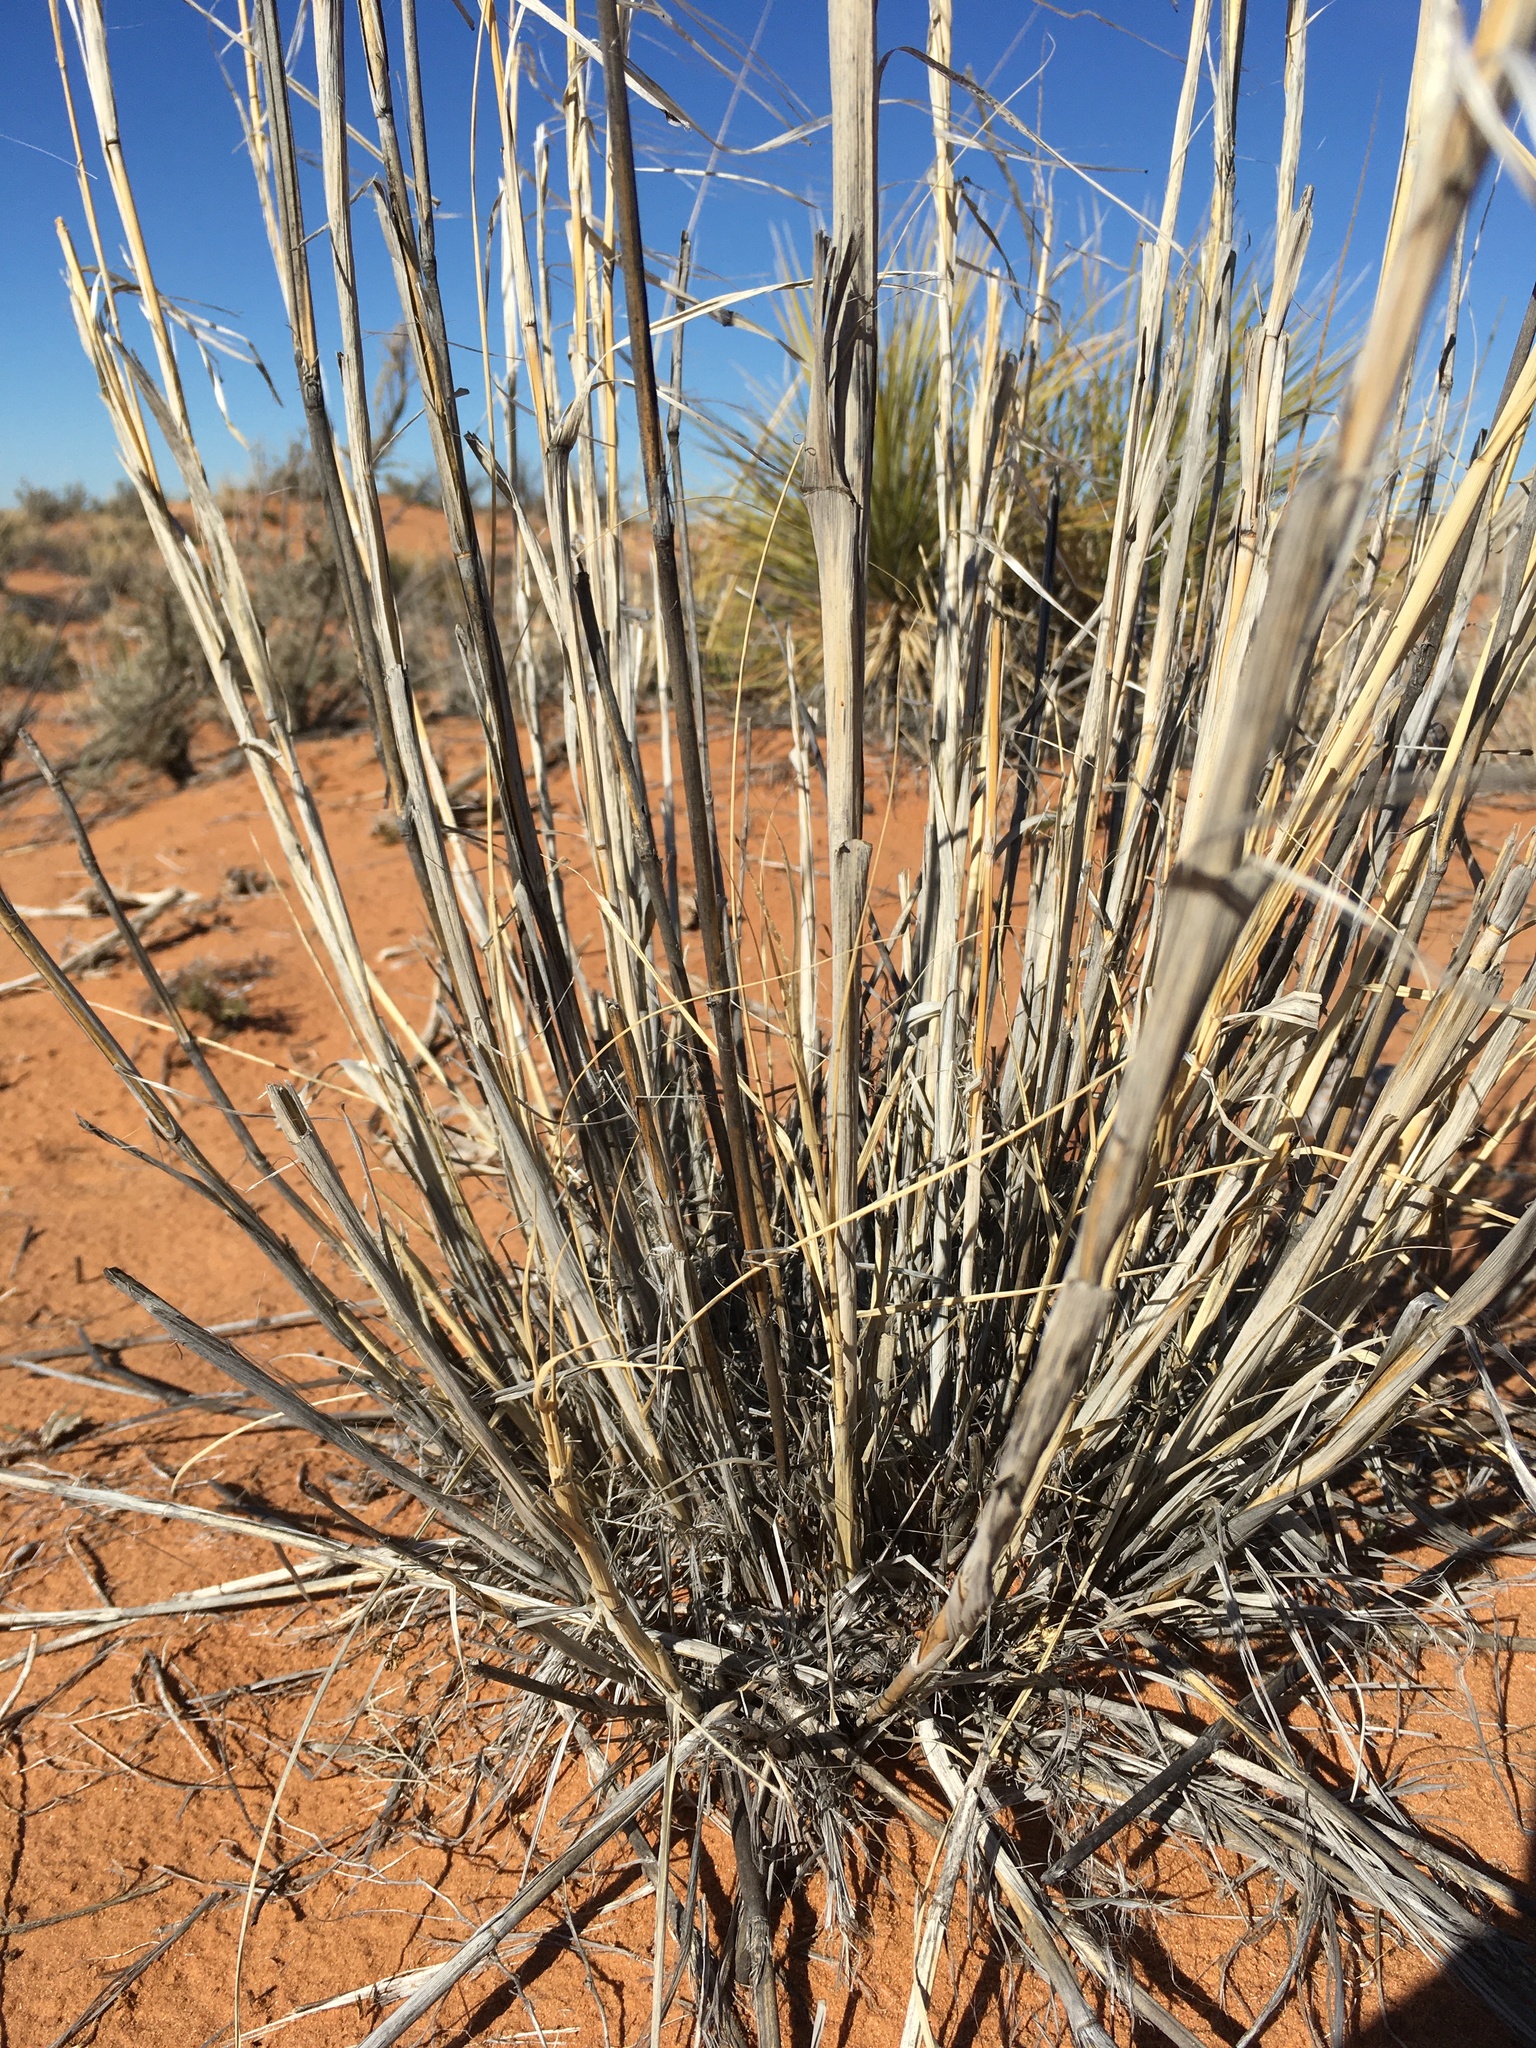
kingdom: Plantae
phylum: Tracheophyta
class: Liliopsida
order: Poales
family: Poaceae
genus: Sporobolus
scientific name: Sporobolus giganteus
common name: Giant dropseed
